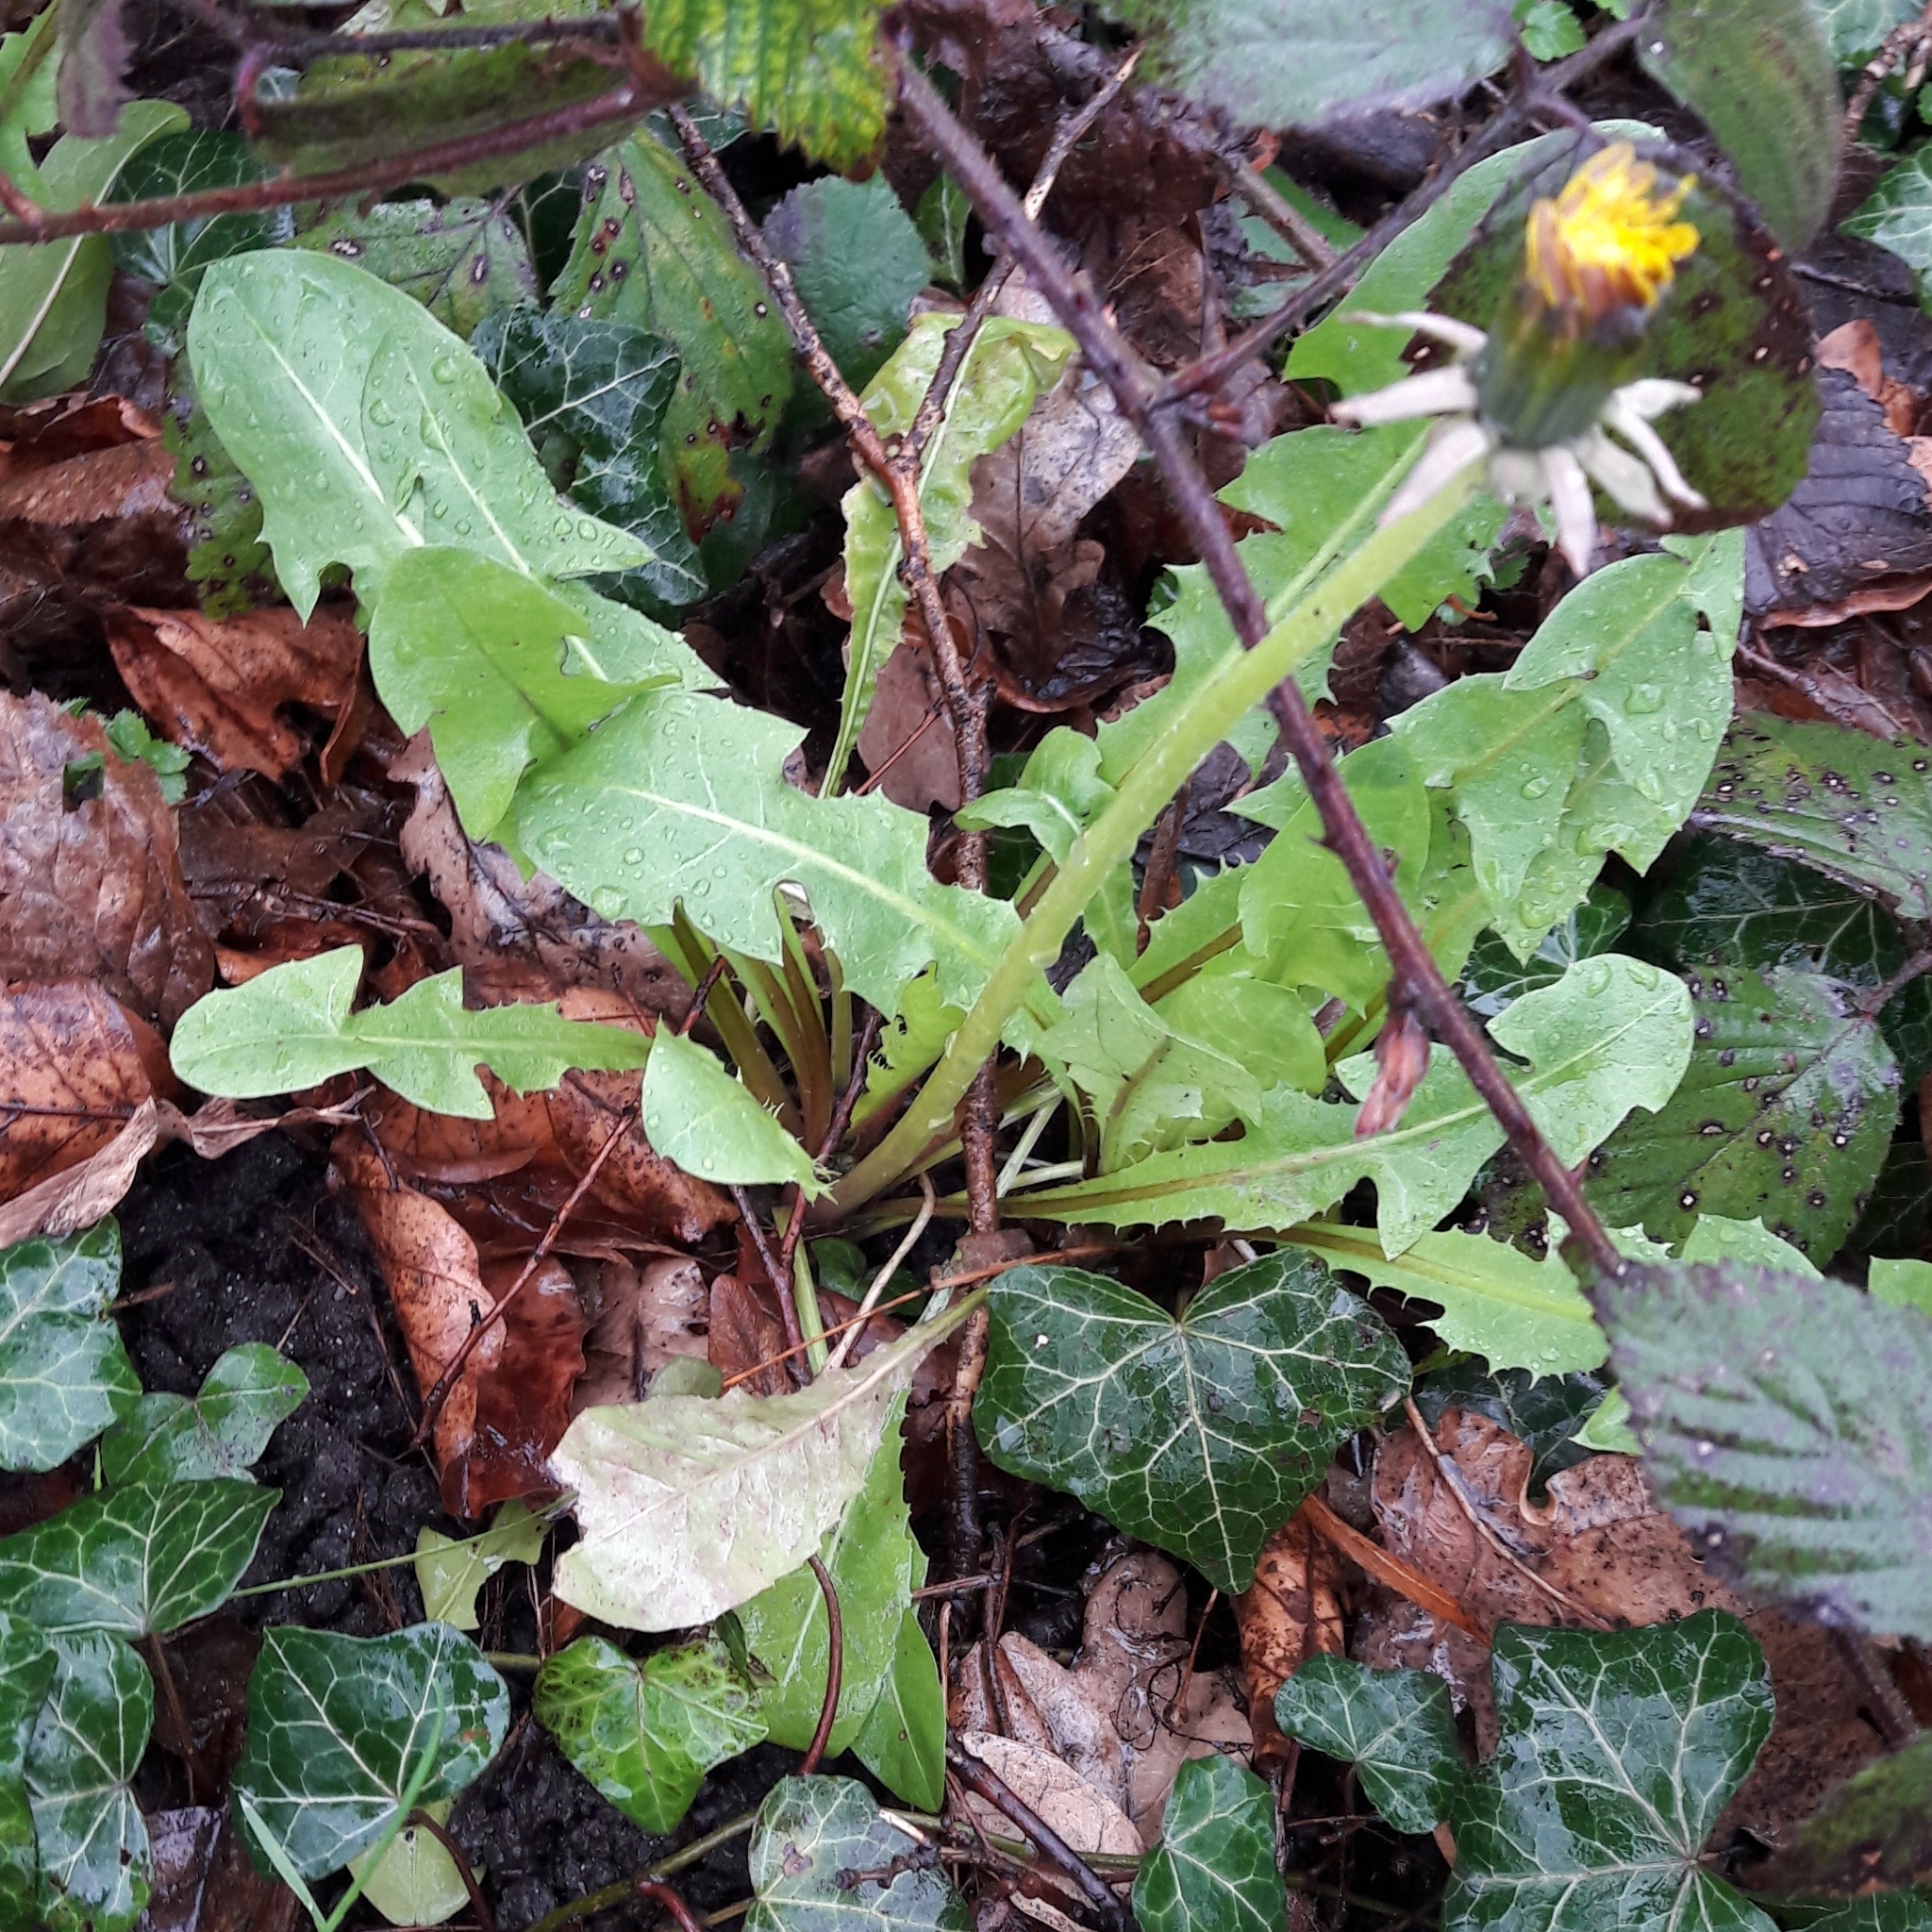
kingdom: Plantae
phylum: Tracheophyta
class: Magnoliopsida
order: Asterales
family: Asteraceae
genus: Taraxacum
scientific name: Taraxacum officinale
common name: Common dandelion
